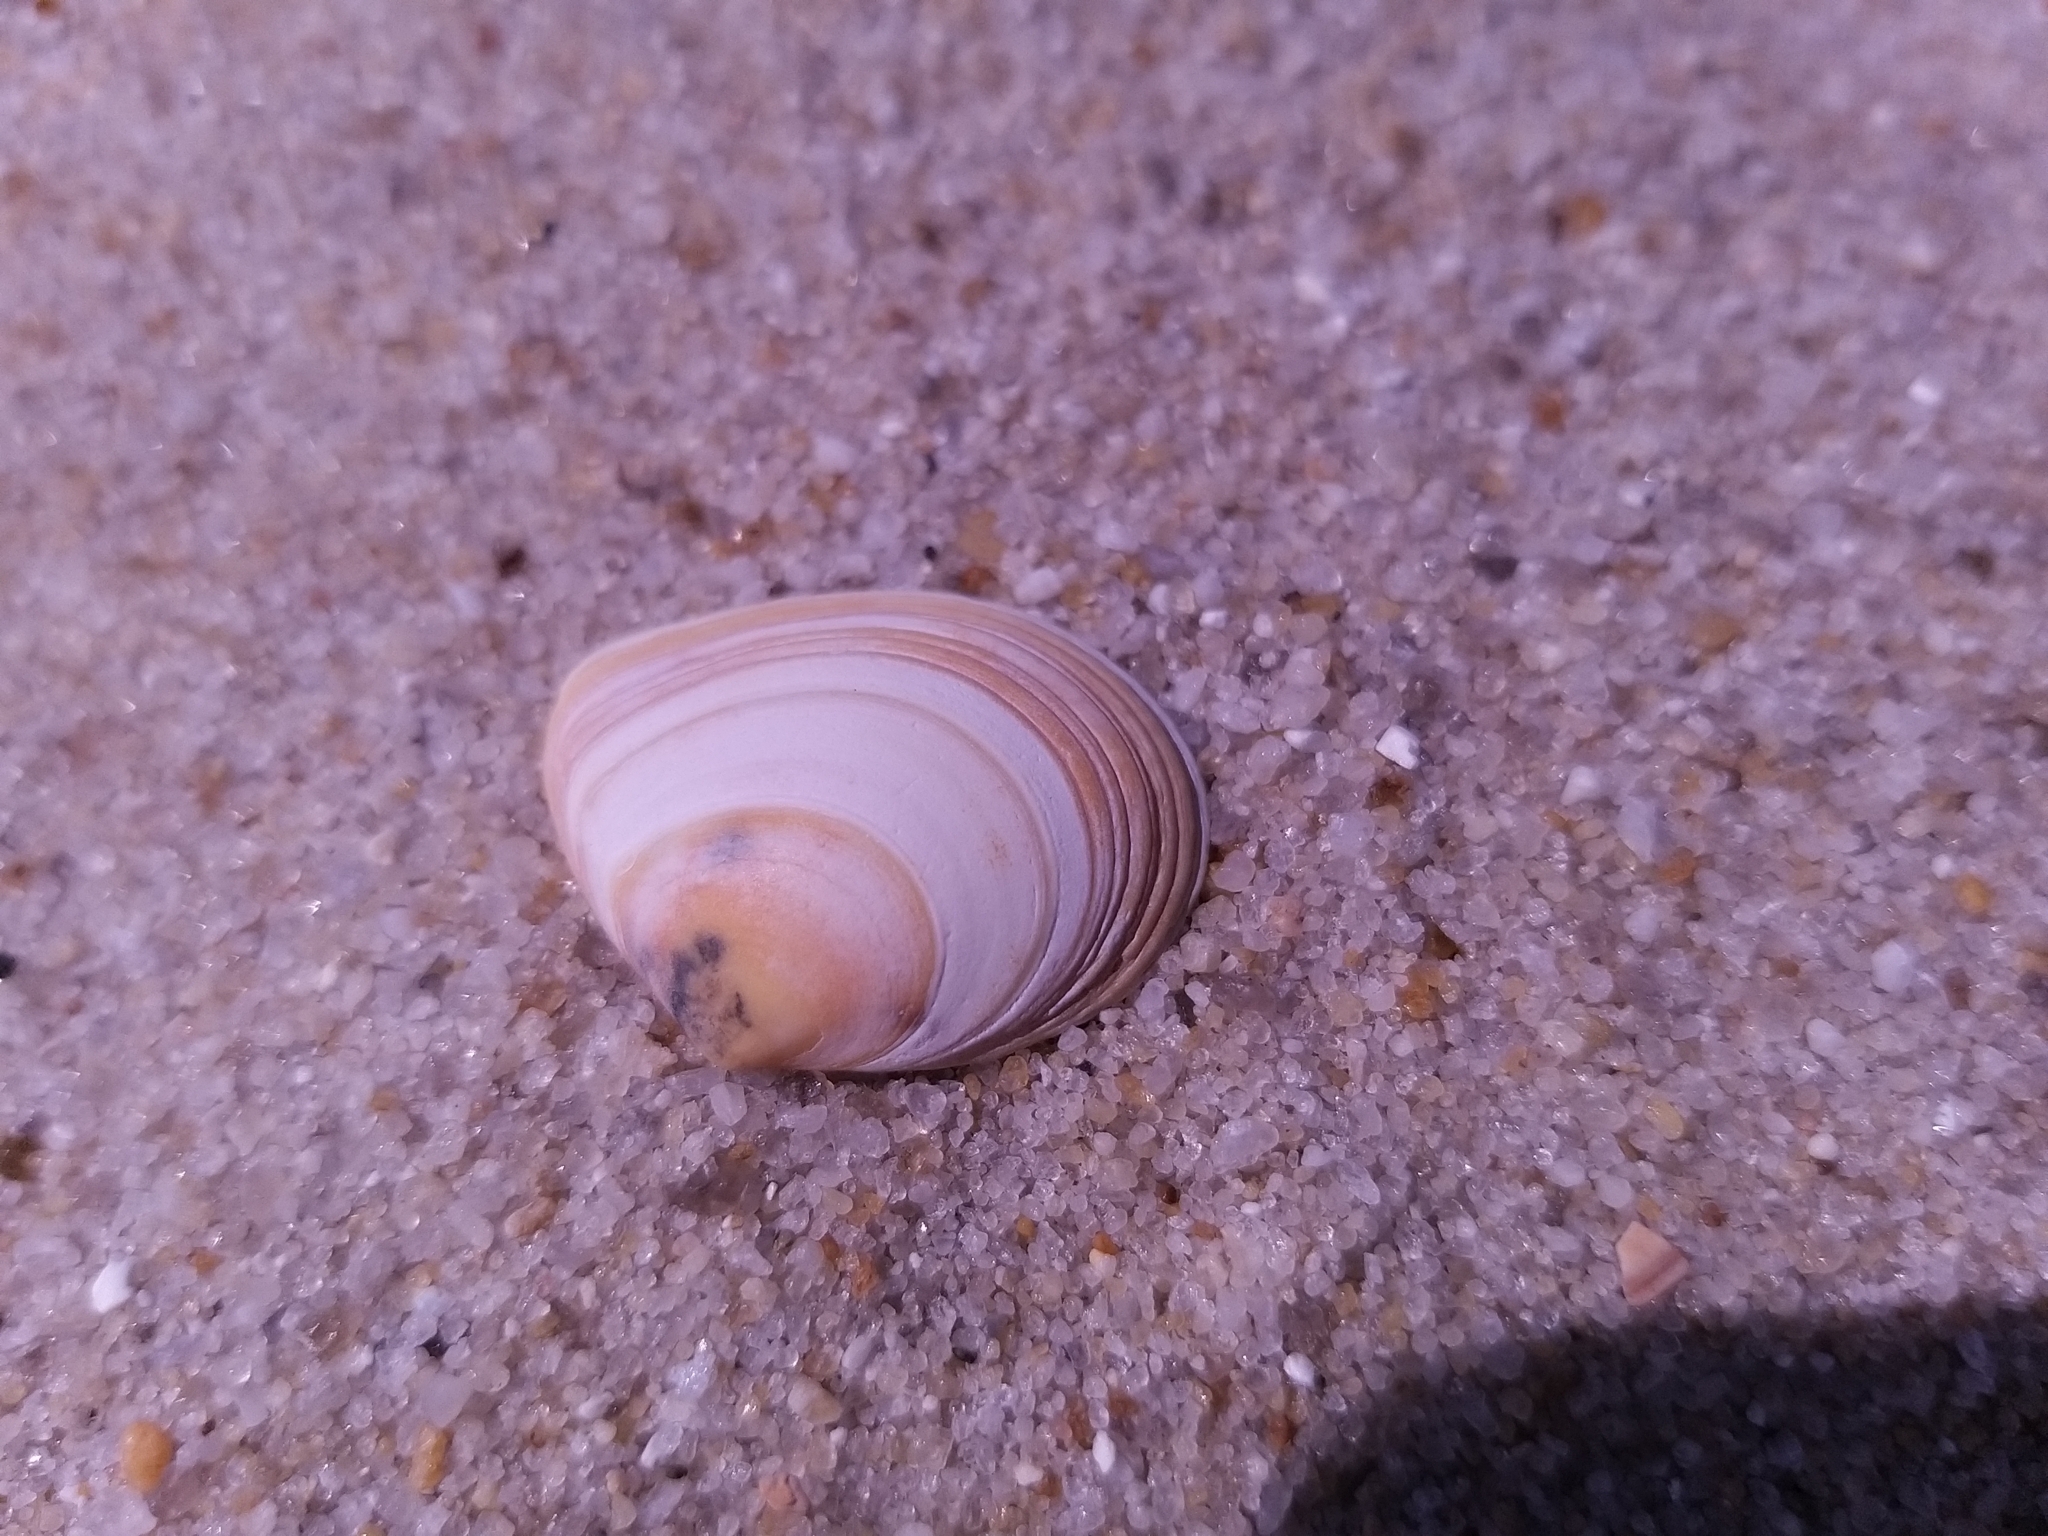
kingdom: Animalia
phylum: Mollusca
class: Bivalvia
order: Cardiida
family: Tellinidae
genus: Macoma
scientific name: Macoma balthica
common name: Baltic tellin
